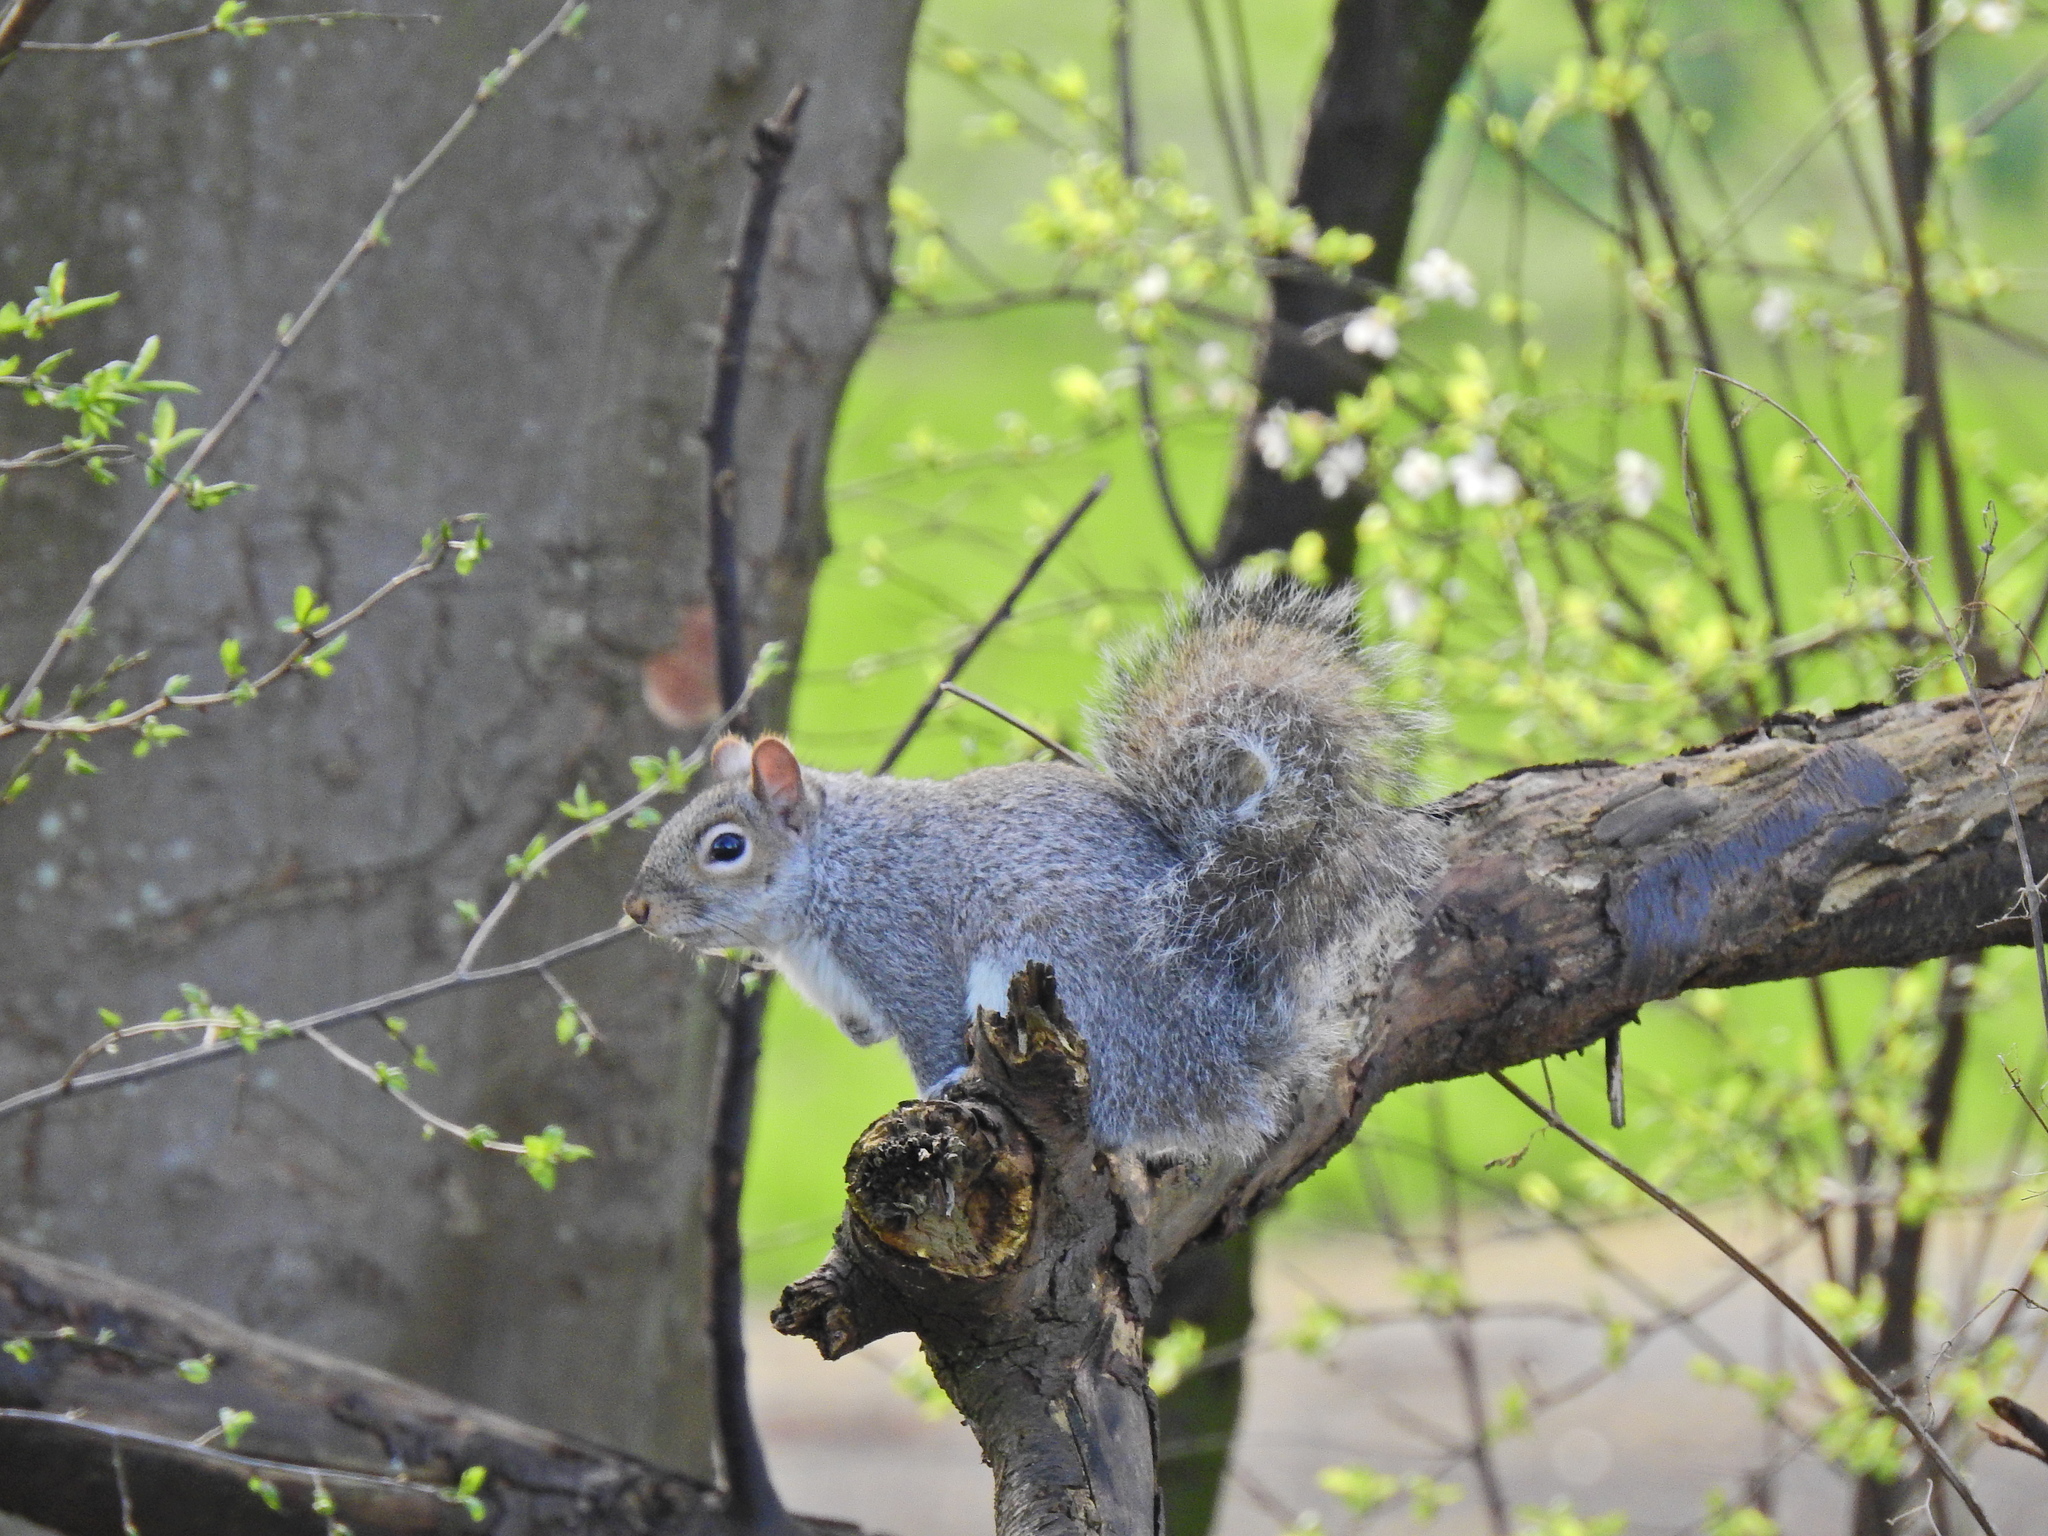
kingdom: Animalia
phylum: Chordata
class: Mammalia
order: Rodentia
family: Sciuridae
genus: Sciurus
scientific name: Sciurus carolinensis
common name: Eastern gray squirrel
